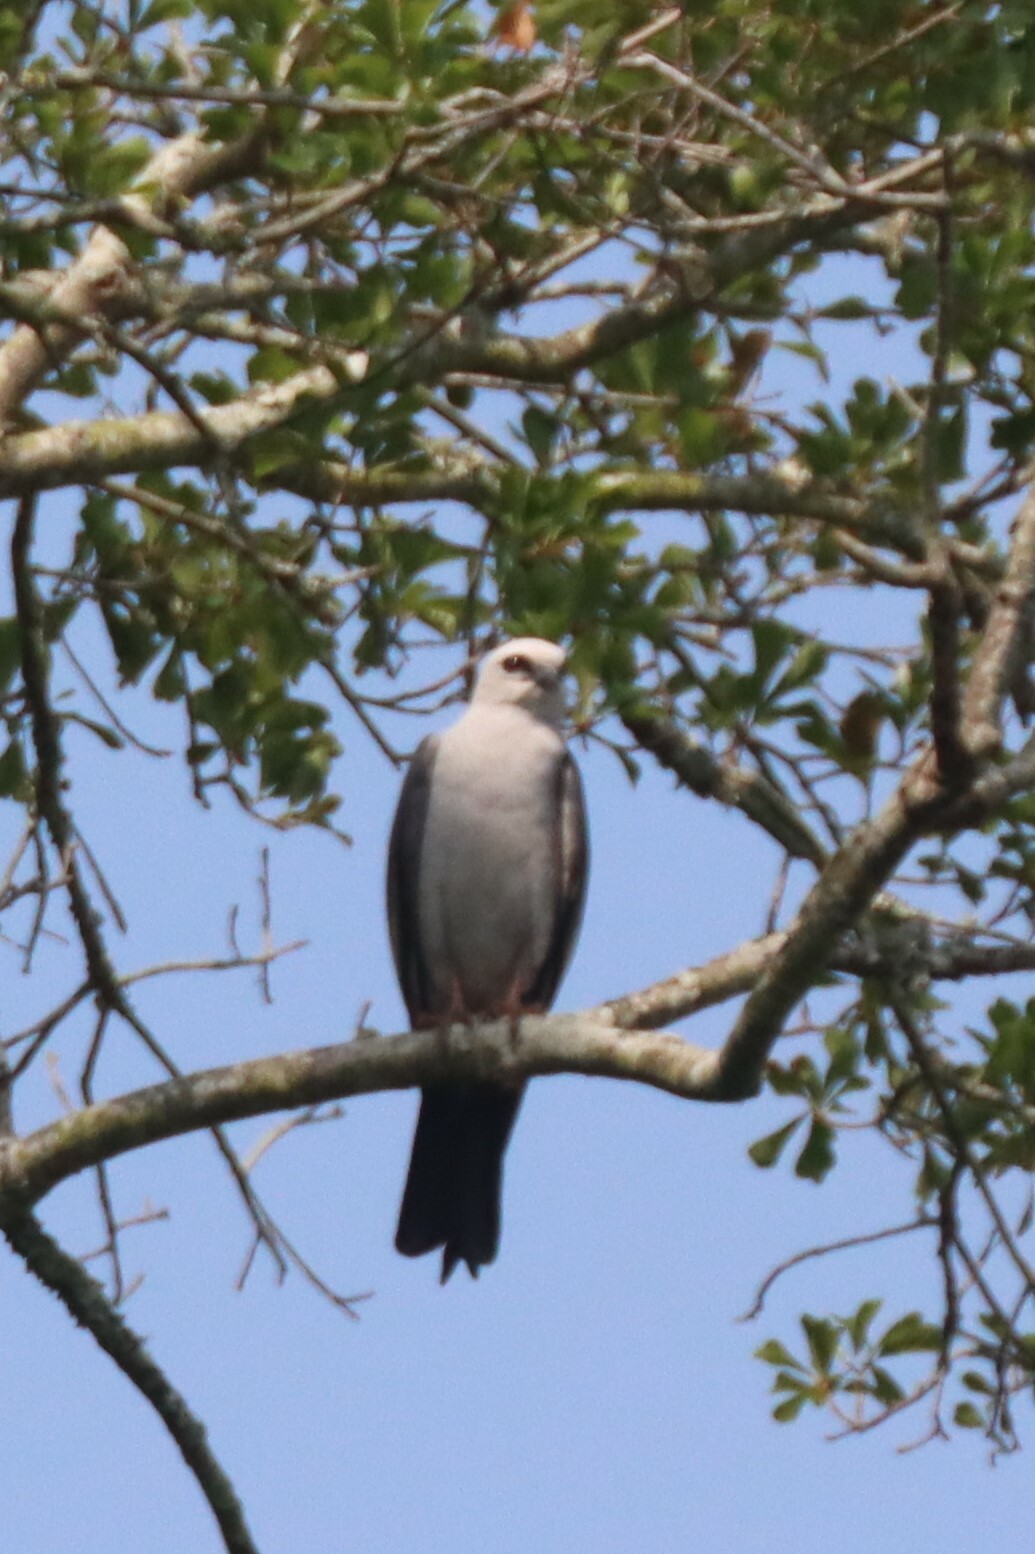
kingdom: Animalia
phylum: Chordata
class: Aves
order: Accipitriformes
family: Accipitridae
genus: Ictinia
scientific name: Ictinia mississippiensis
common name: Mississippi kite
